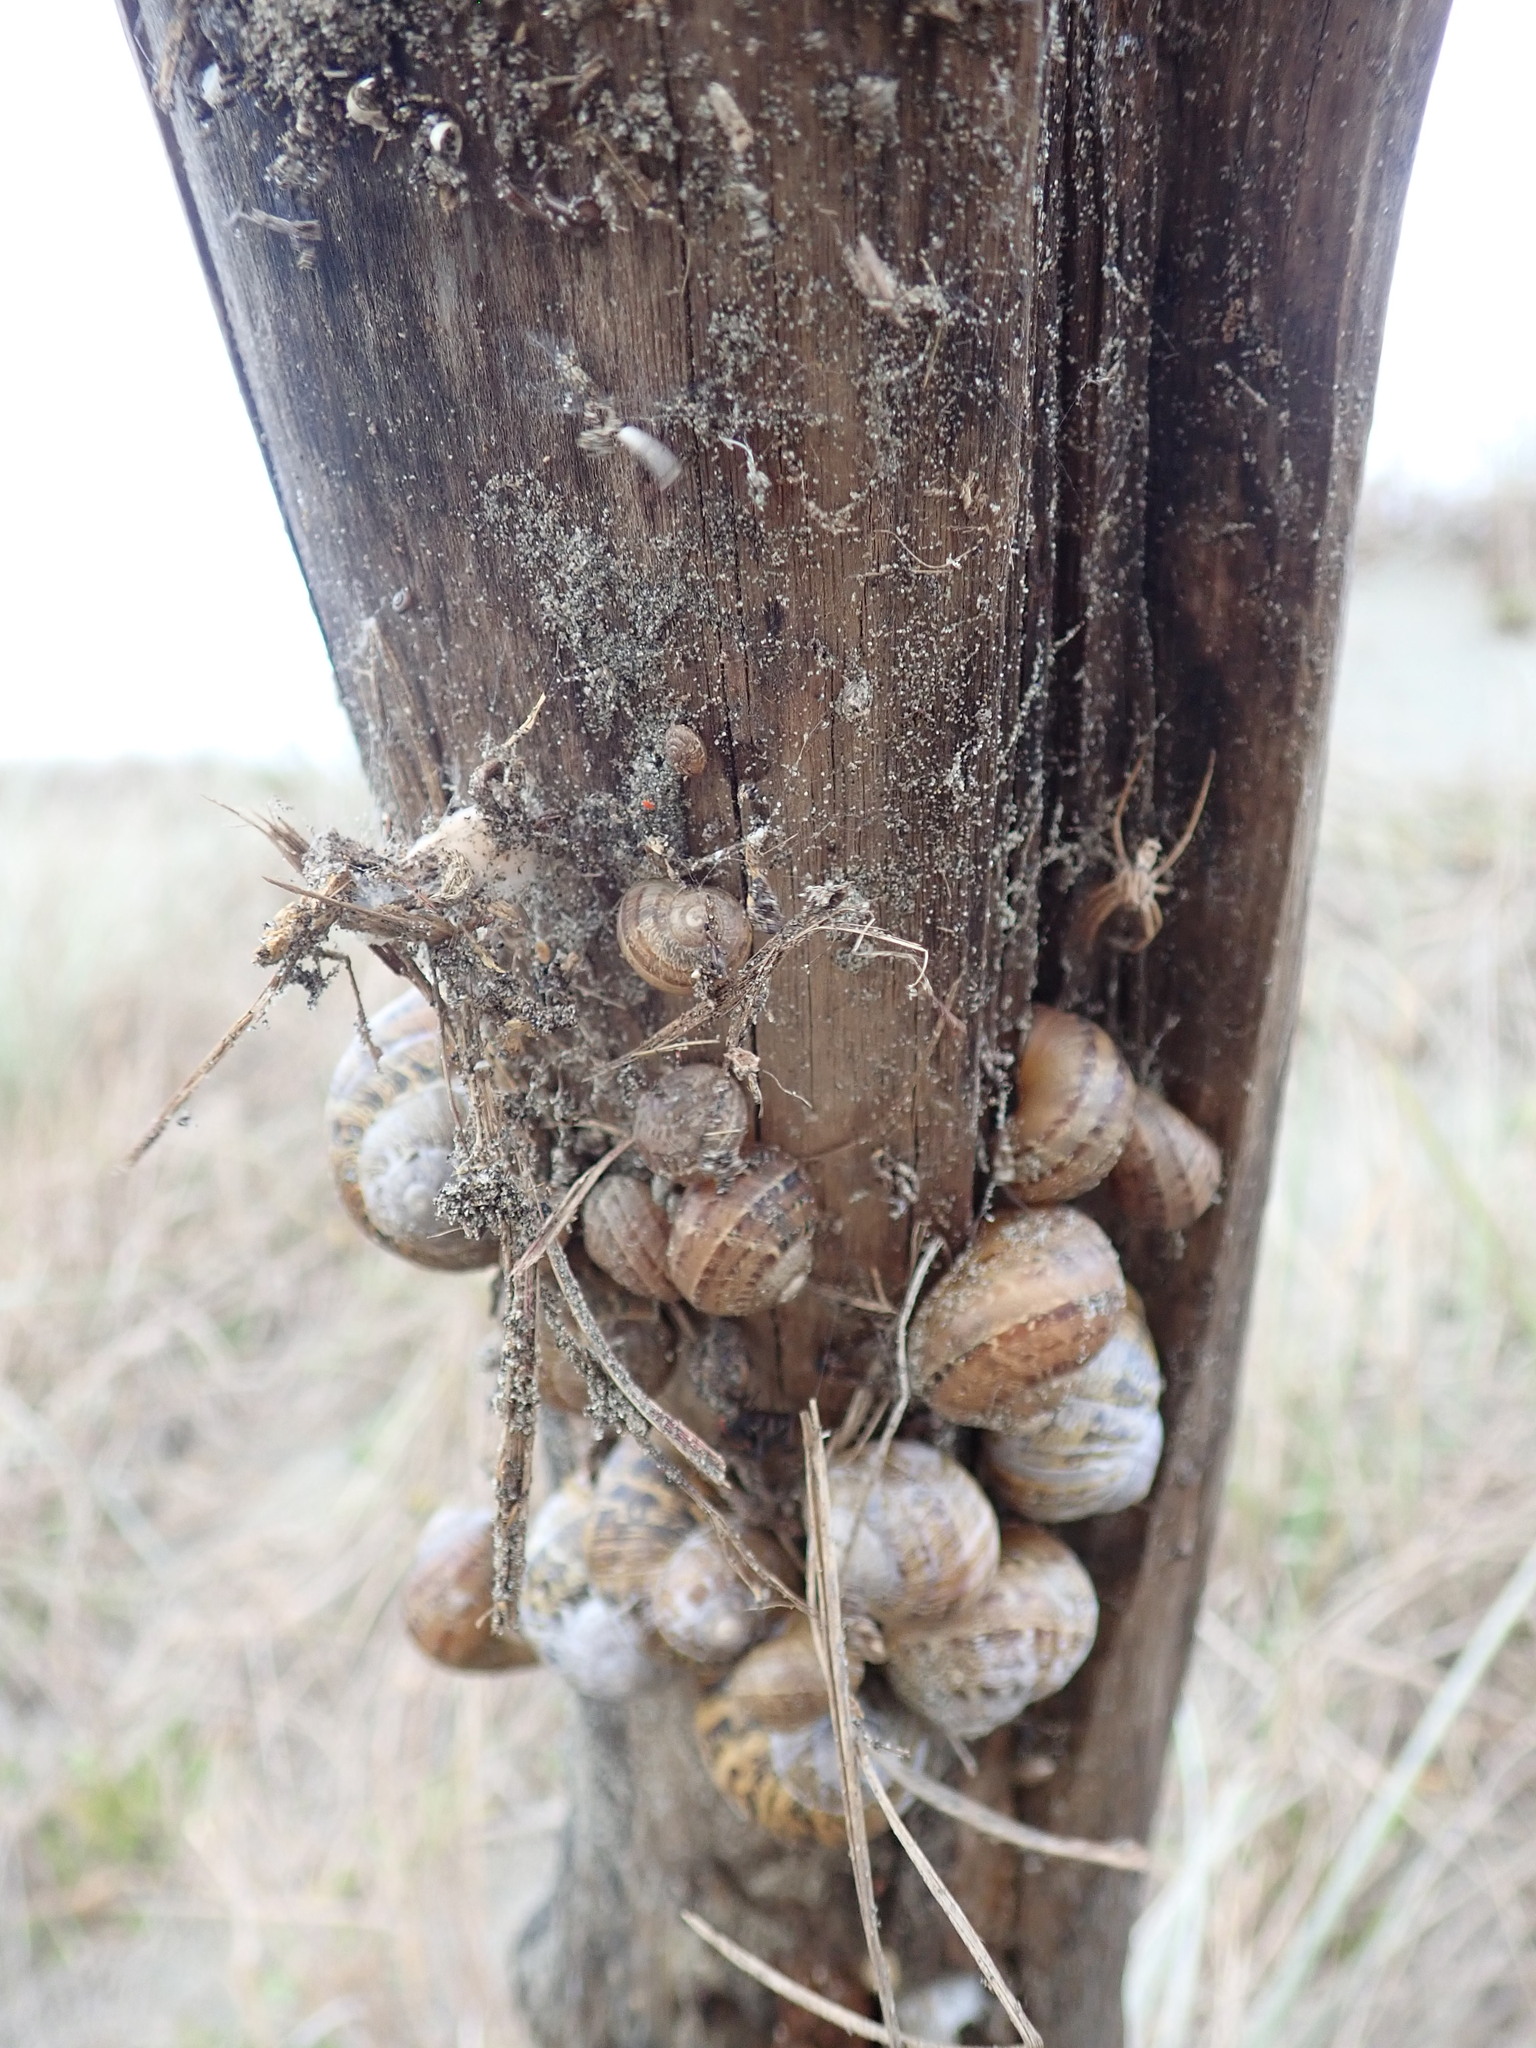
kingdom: Animalia
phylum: Mollusca
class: Gastropoda
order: Stylommatophora
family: Helicidae
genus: Cornu
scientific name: Cornu aspersum
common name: Brown garden snail
